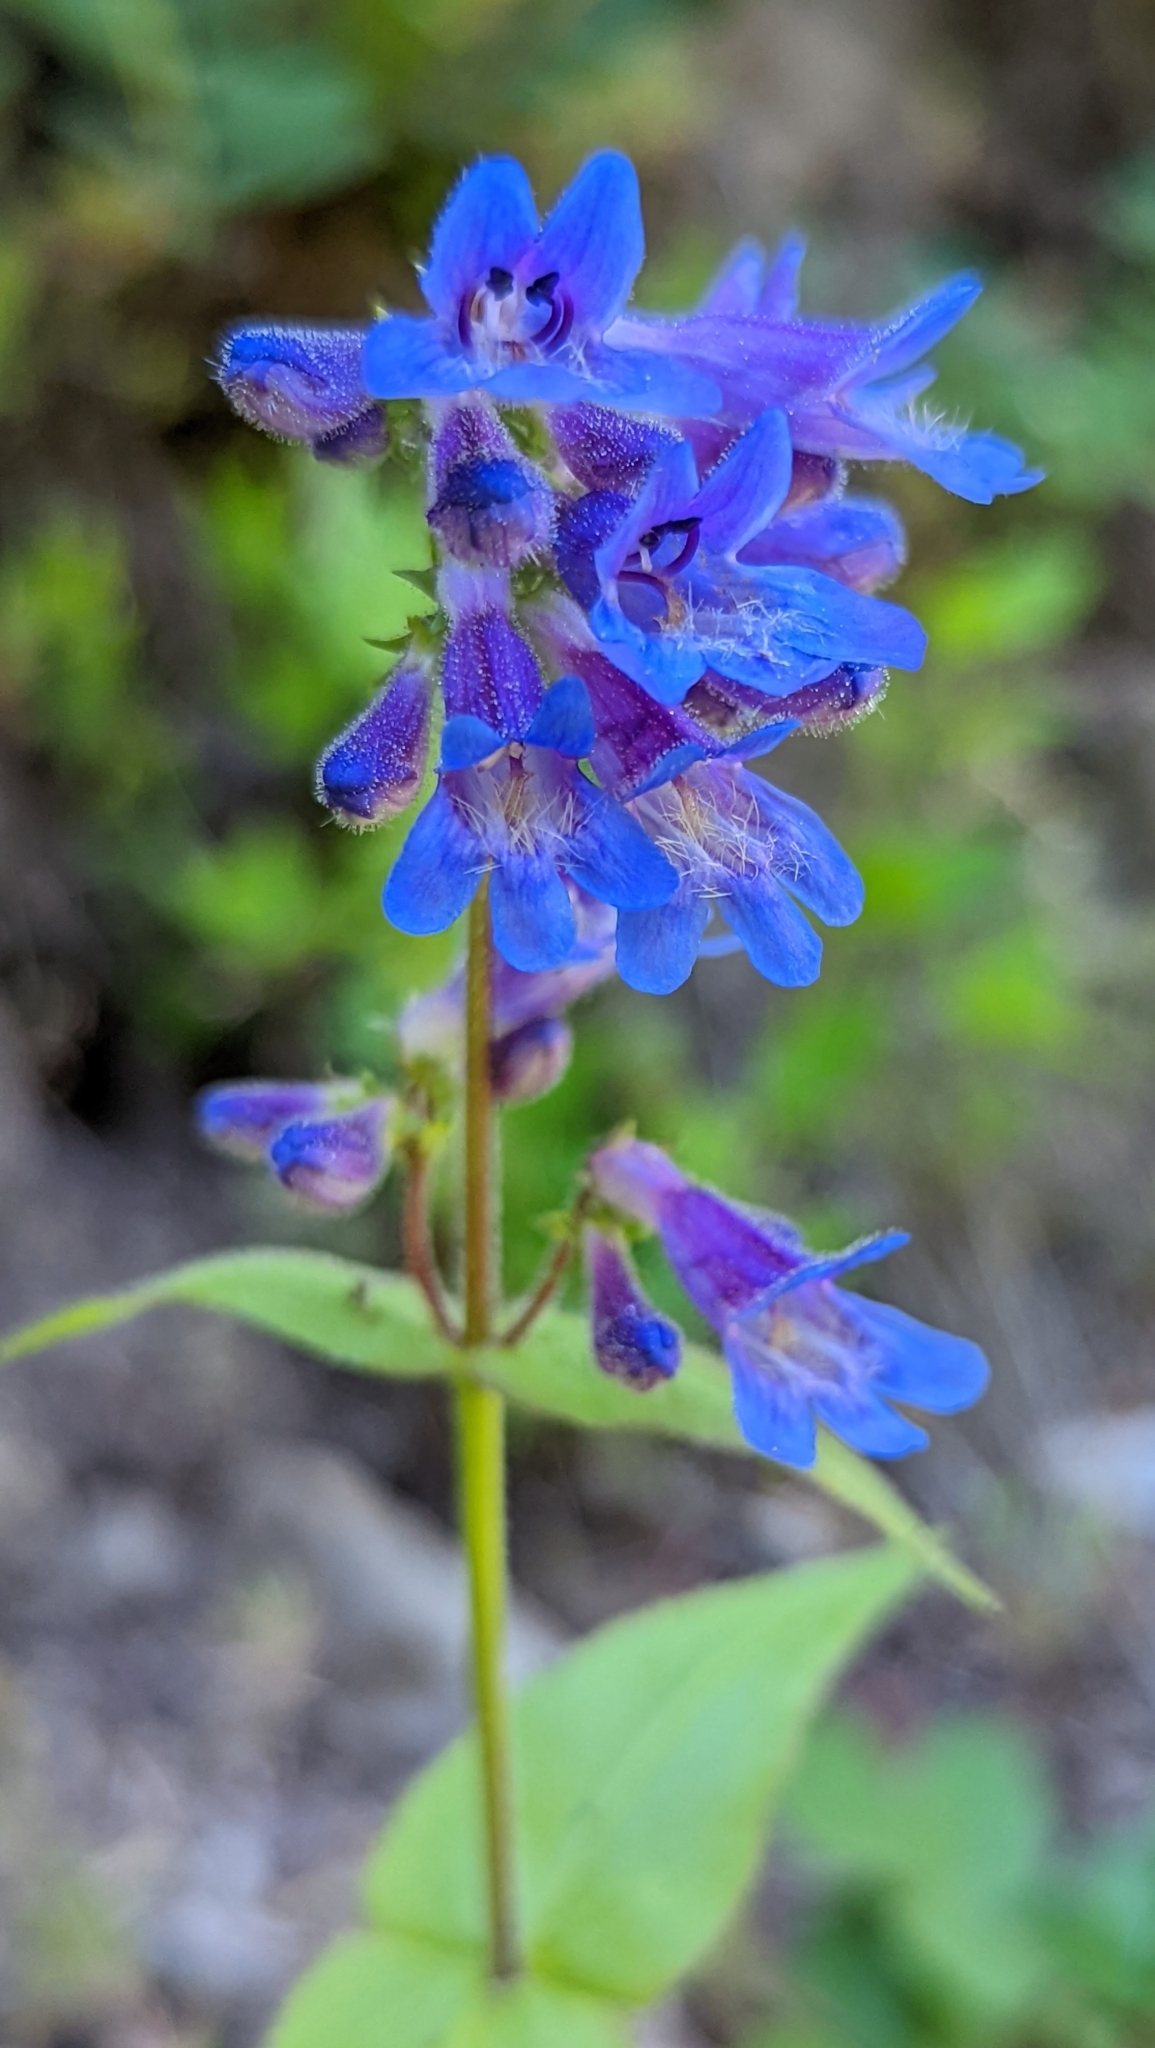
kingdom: Plantae
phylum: Tracheophyta
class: Magnoliopsida
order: Lamiales
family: Plantaginaceae
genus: Penstemon
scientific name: Penstemon ovatus
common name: Broad-leaved beardtongue
